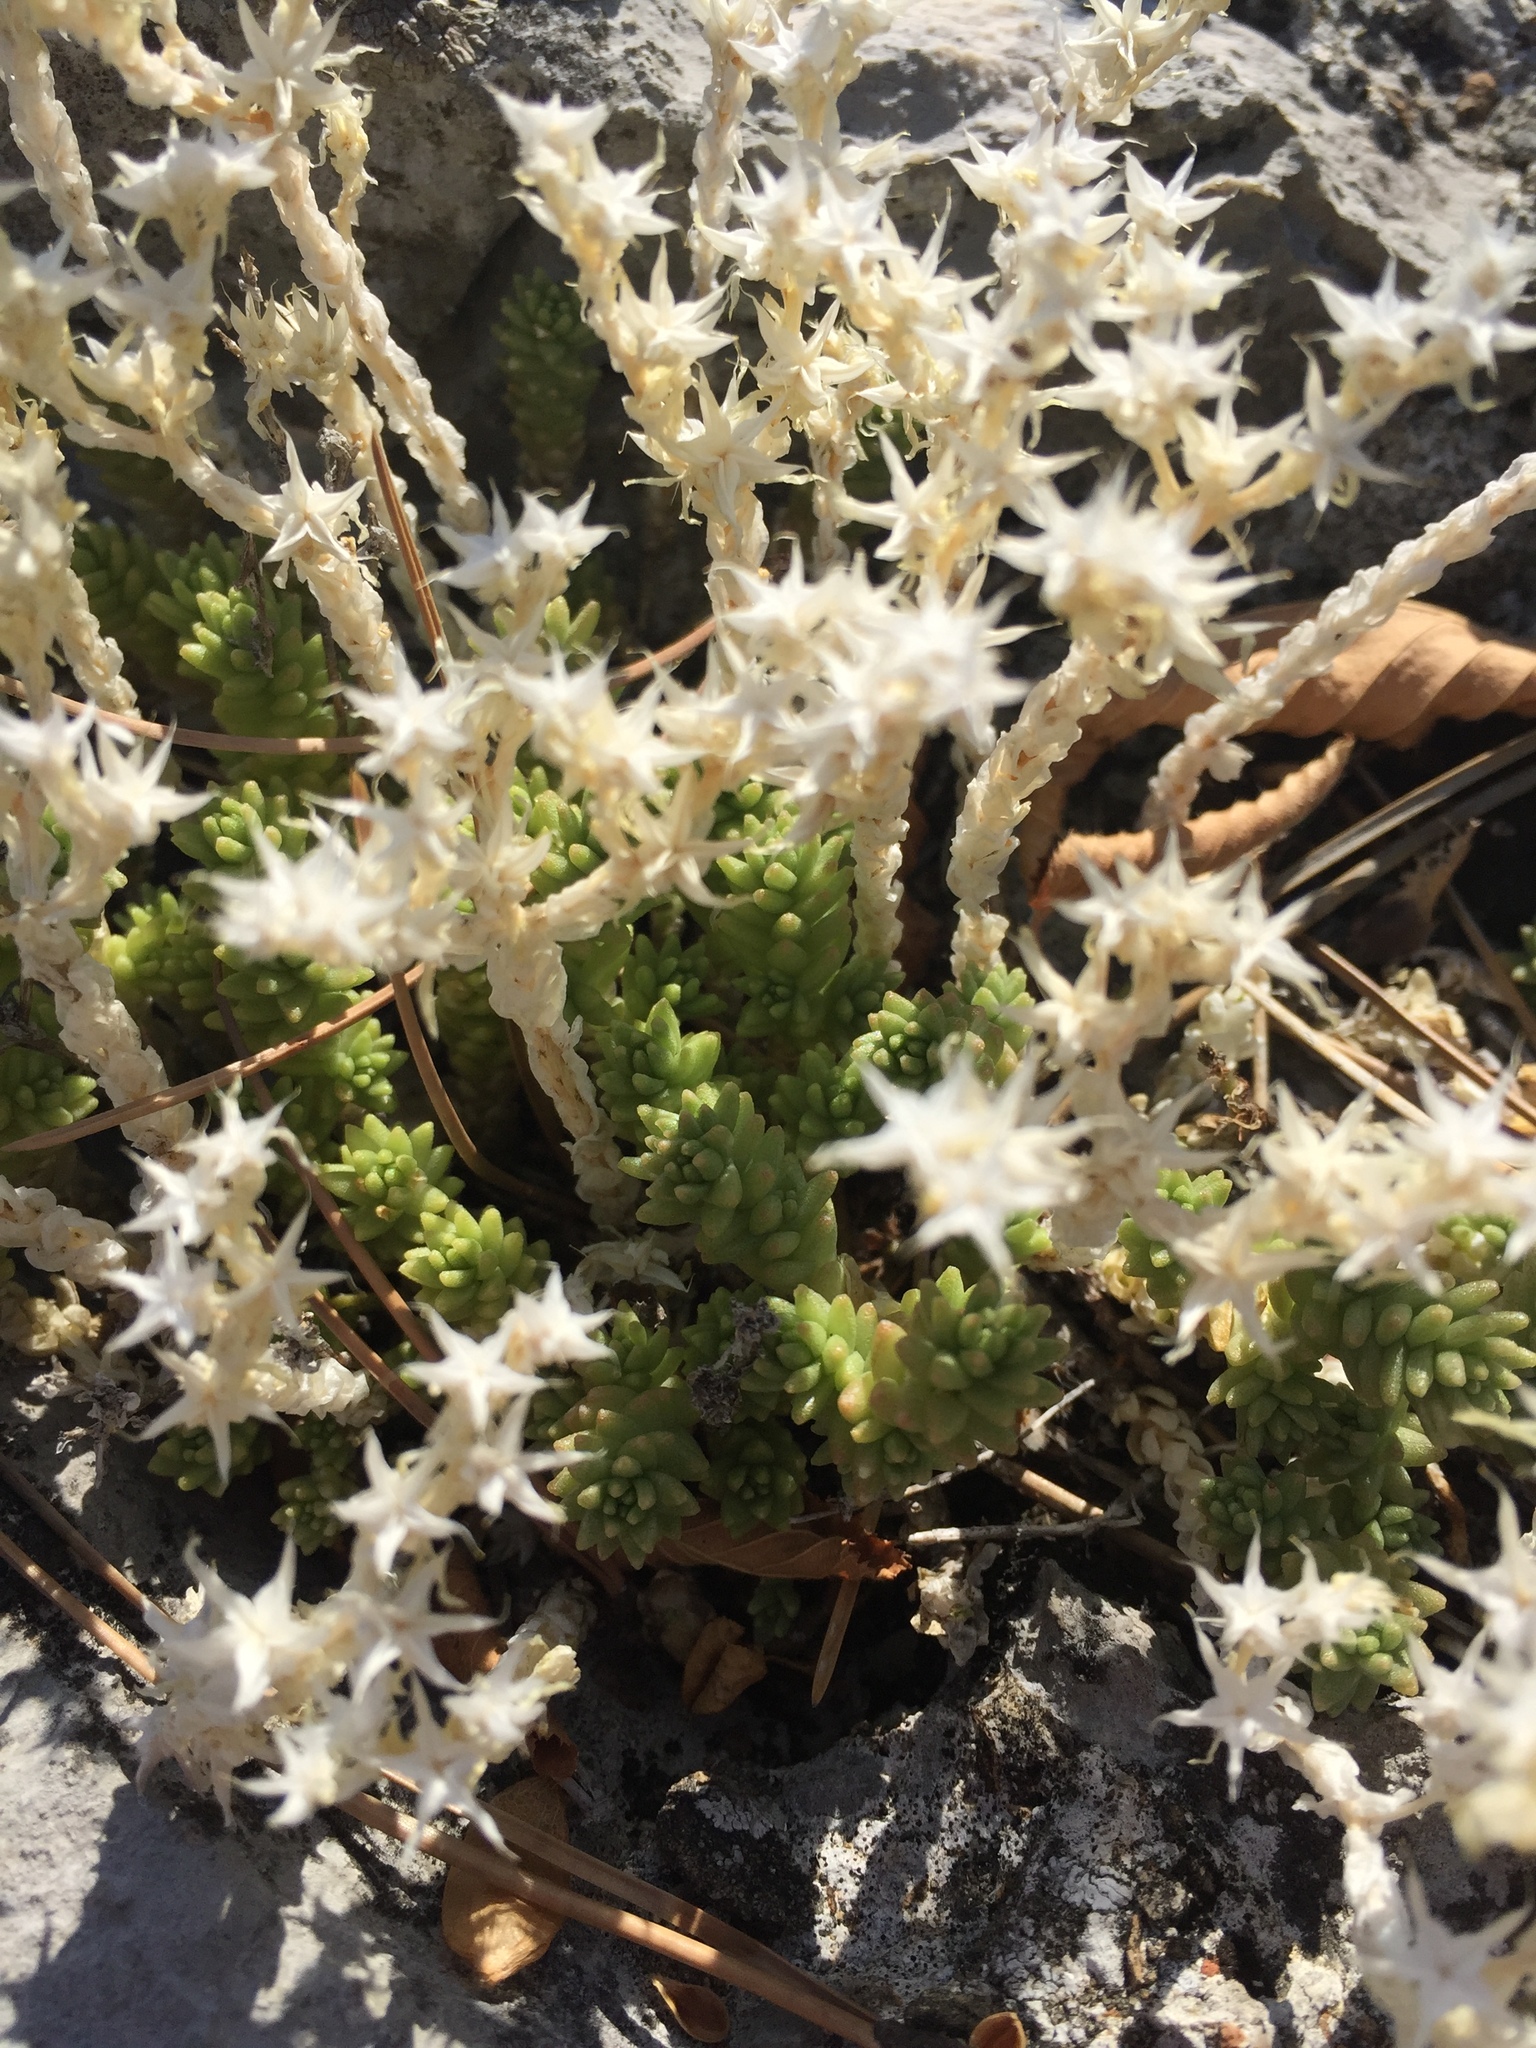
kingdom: Plantae
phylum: Tracheophyta
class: Magnoliopsida
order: Saxifragales
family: Crassulaceae
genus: Sedum
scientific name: Sedum acre
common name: Biting stonecrop
